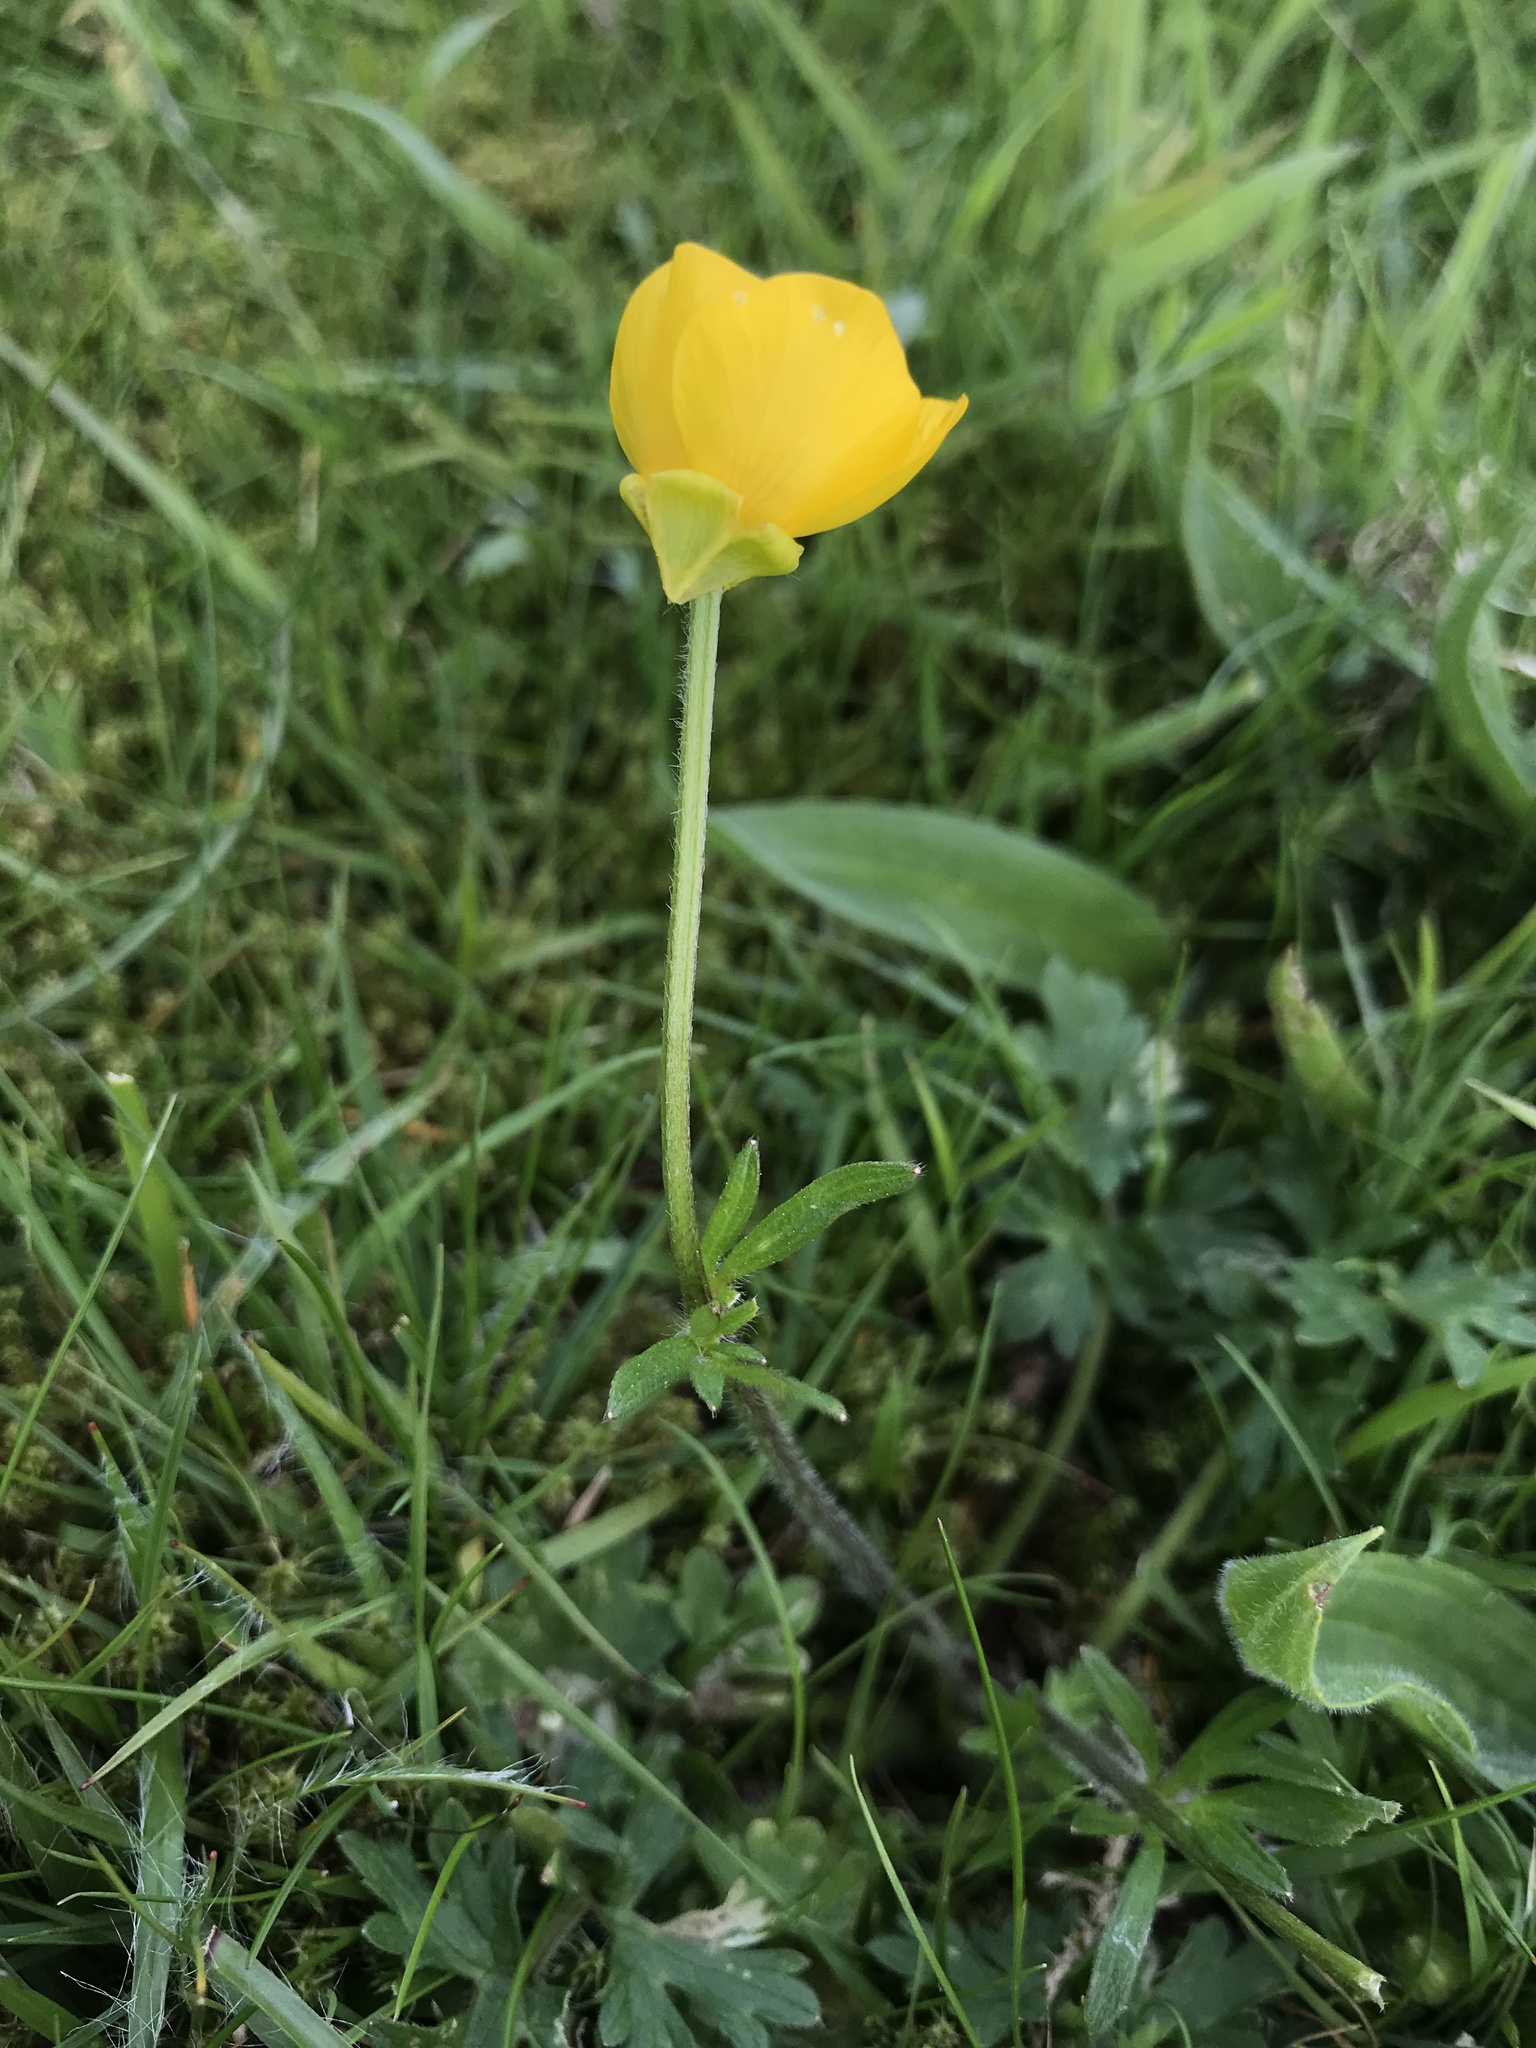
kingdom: Plantae
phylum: Tracheophyta
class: Magnoliopsida
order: Ranunculales
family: Ranunculaceae
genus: Ranunculus
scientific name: Ranunculus bulbosus
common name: Bulbous buttercup
